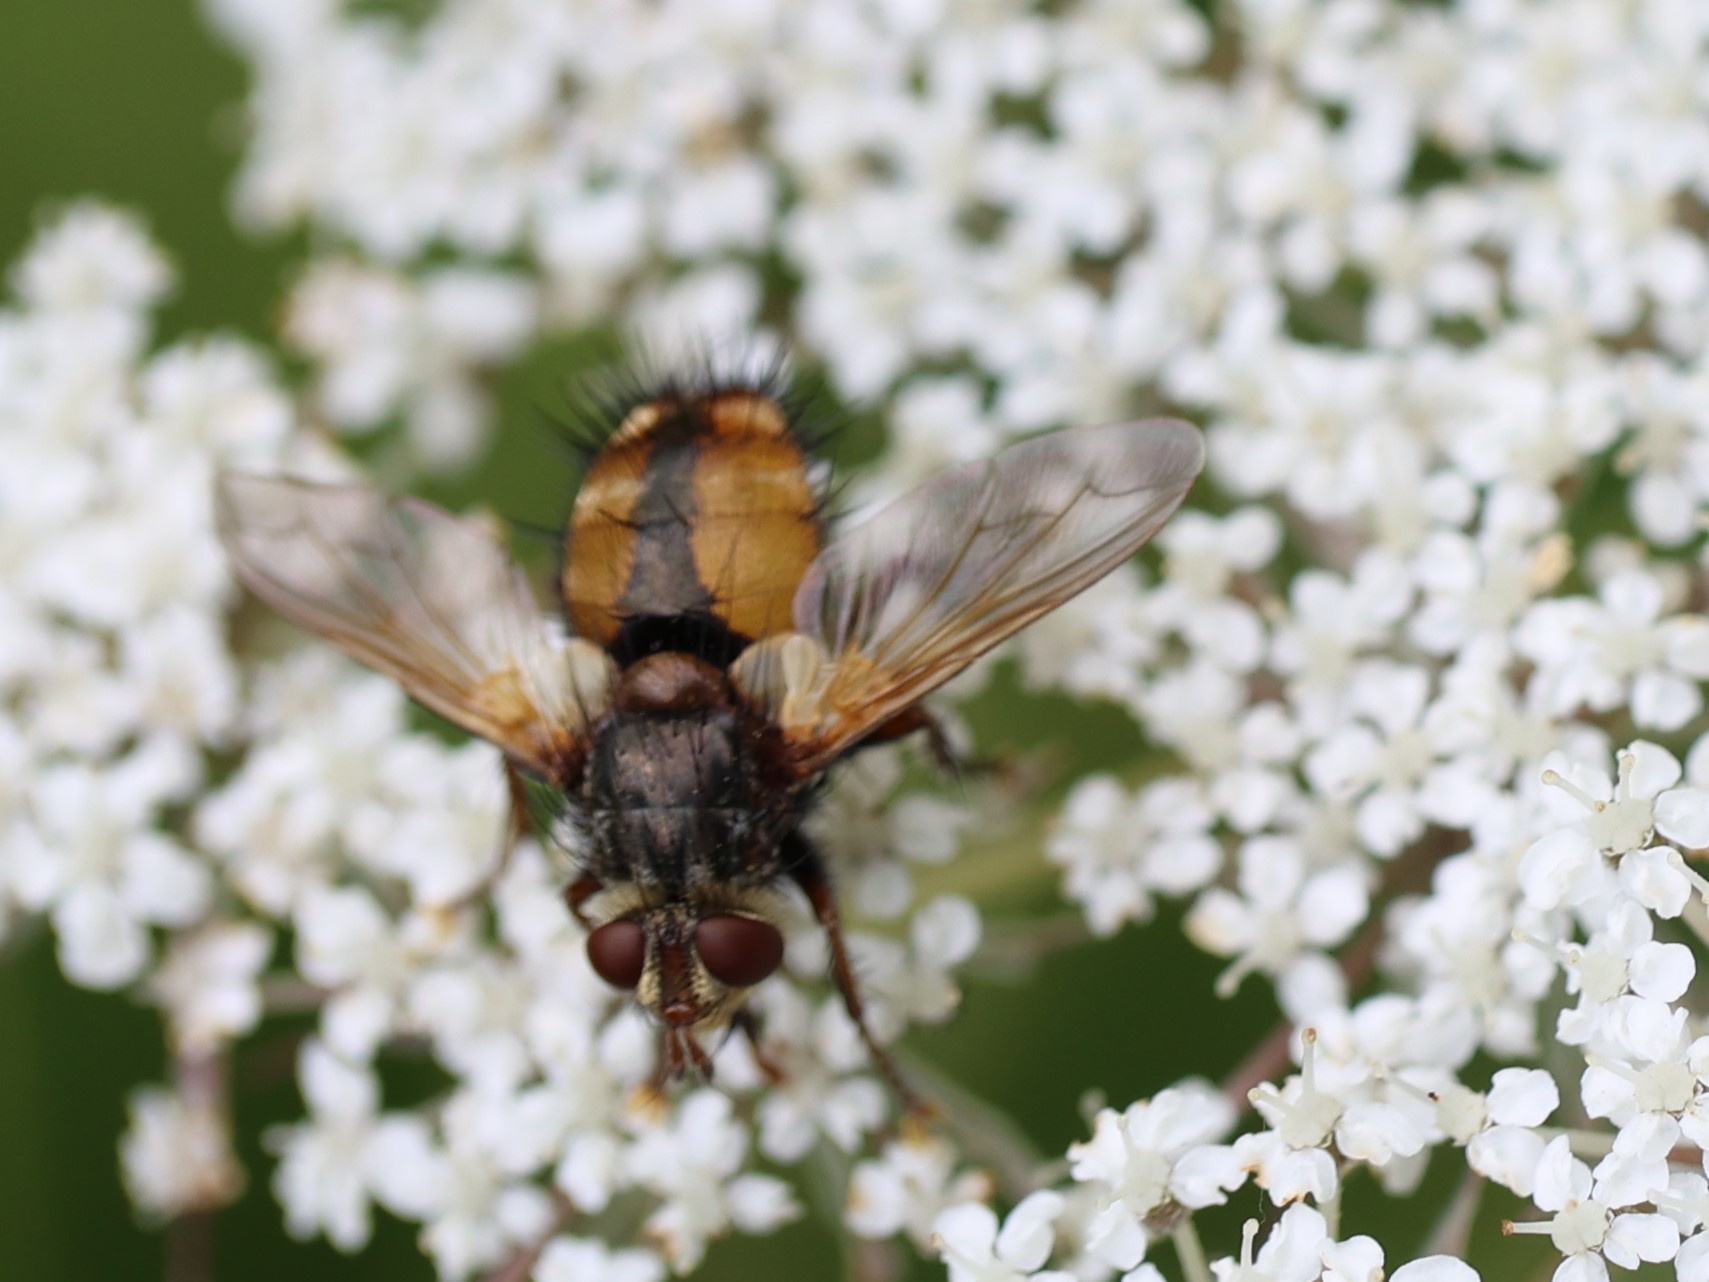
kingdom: Animalia
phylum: Arthropoda
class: Insecta
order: Diptera
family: Tachinidae
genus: Tachina
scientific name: Tachina fera
